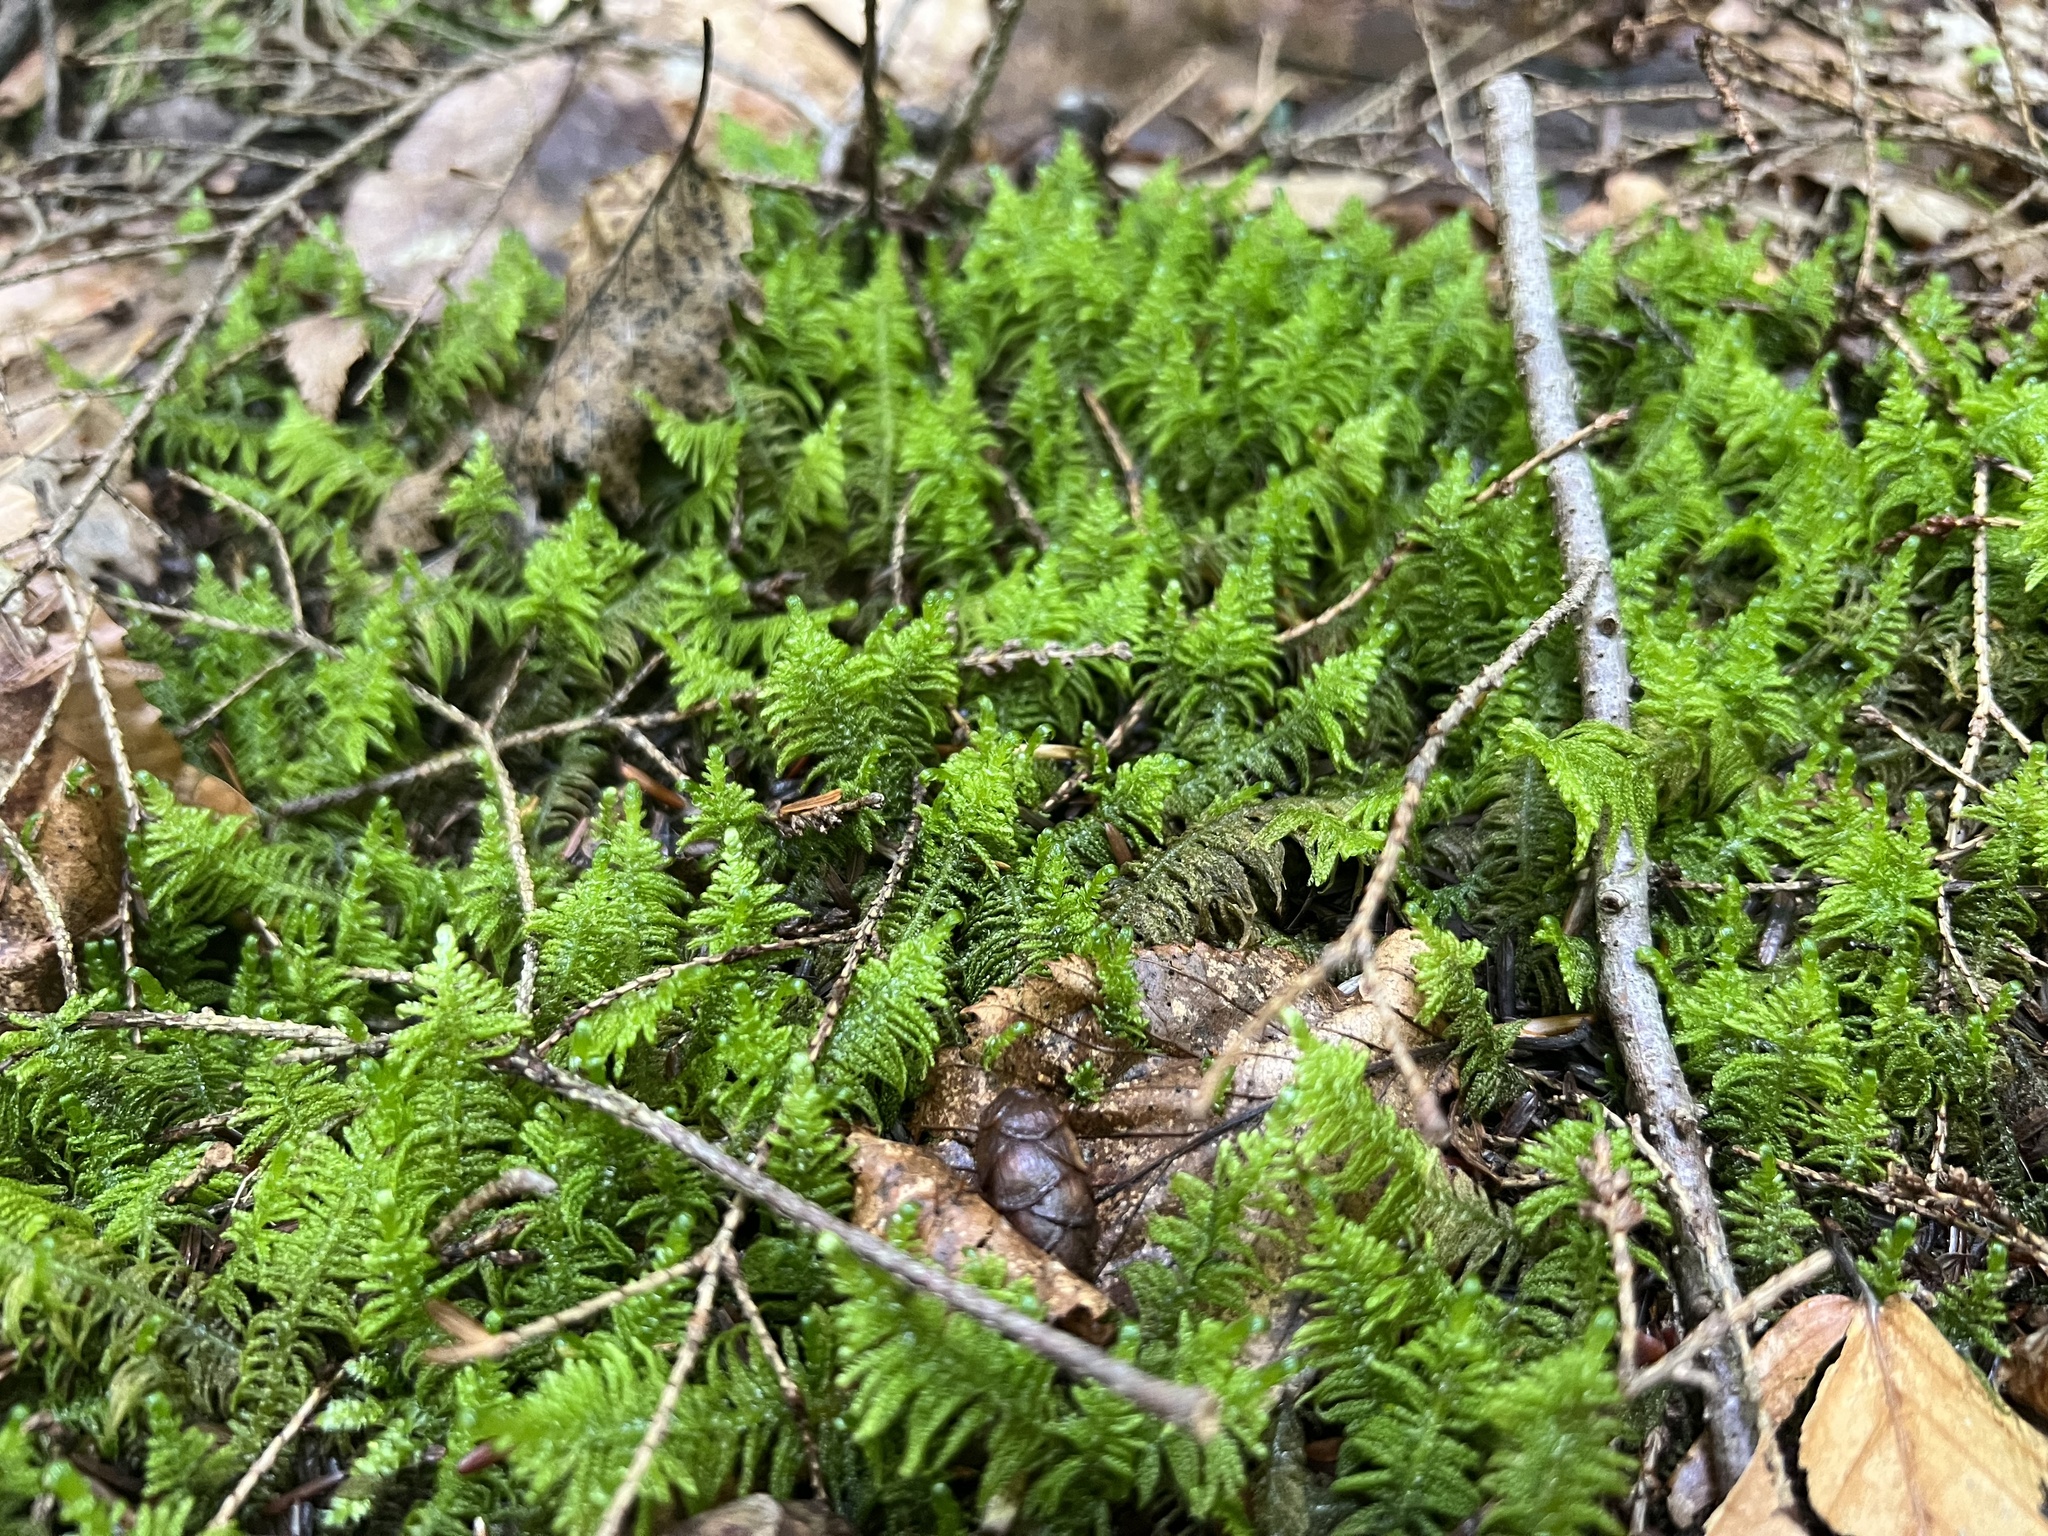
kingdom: Plantae
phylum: Bryophyta
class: Bryopsida
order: Hypnales
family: Pylaisiaceae
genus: Ptilium
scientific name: Ptilium crista-castrensis
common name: Knight's plume moss
